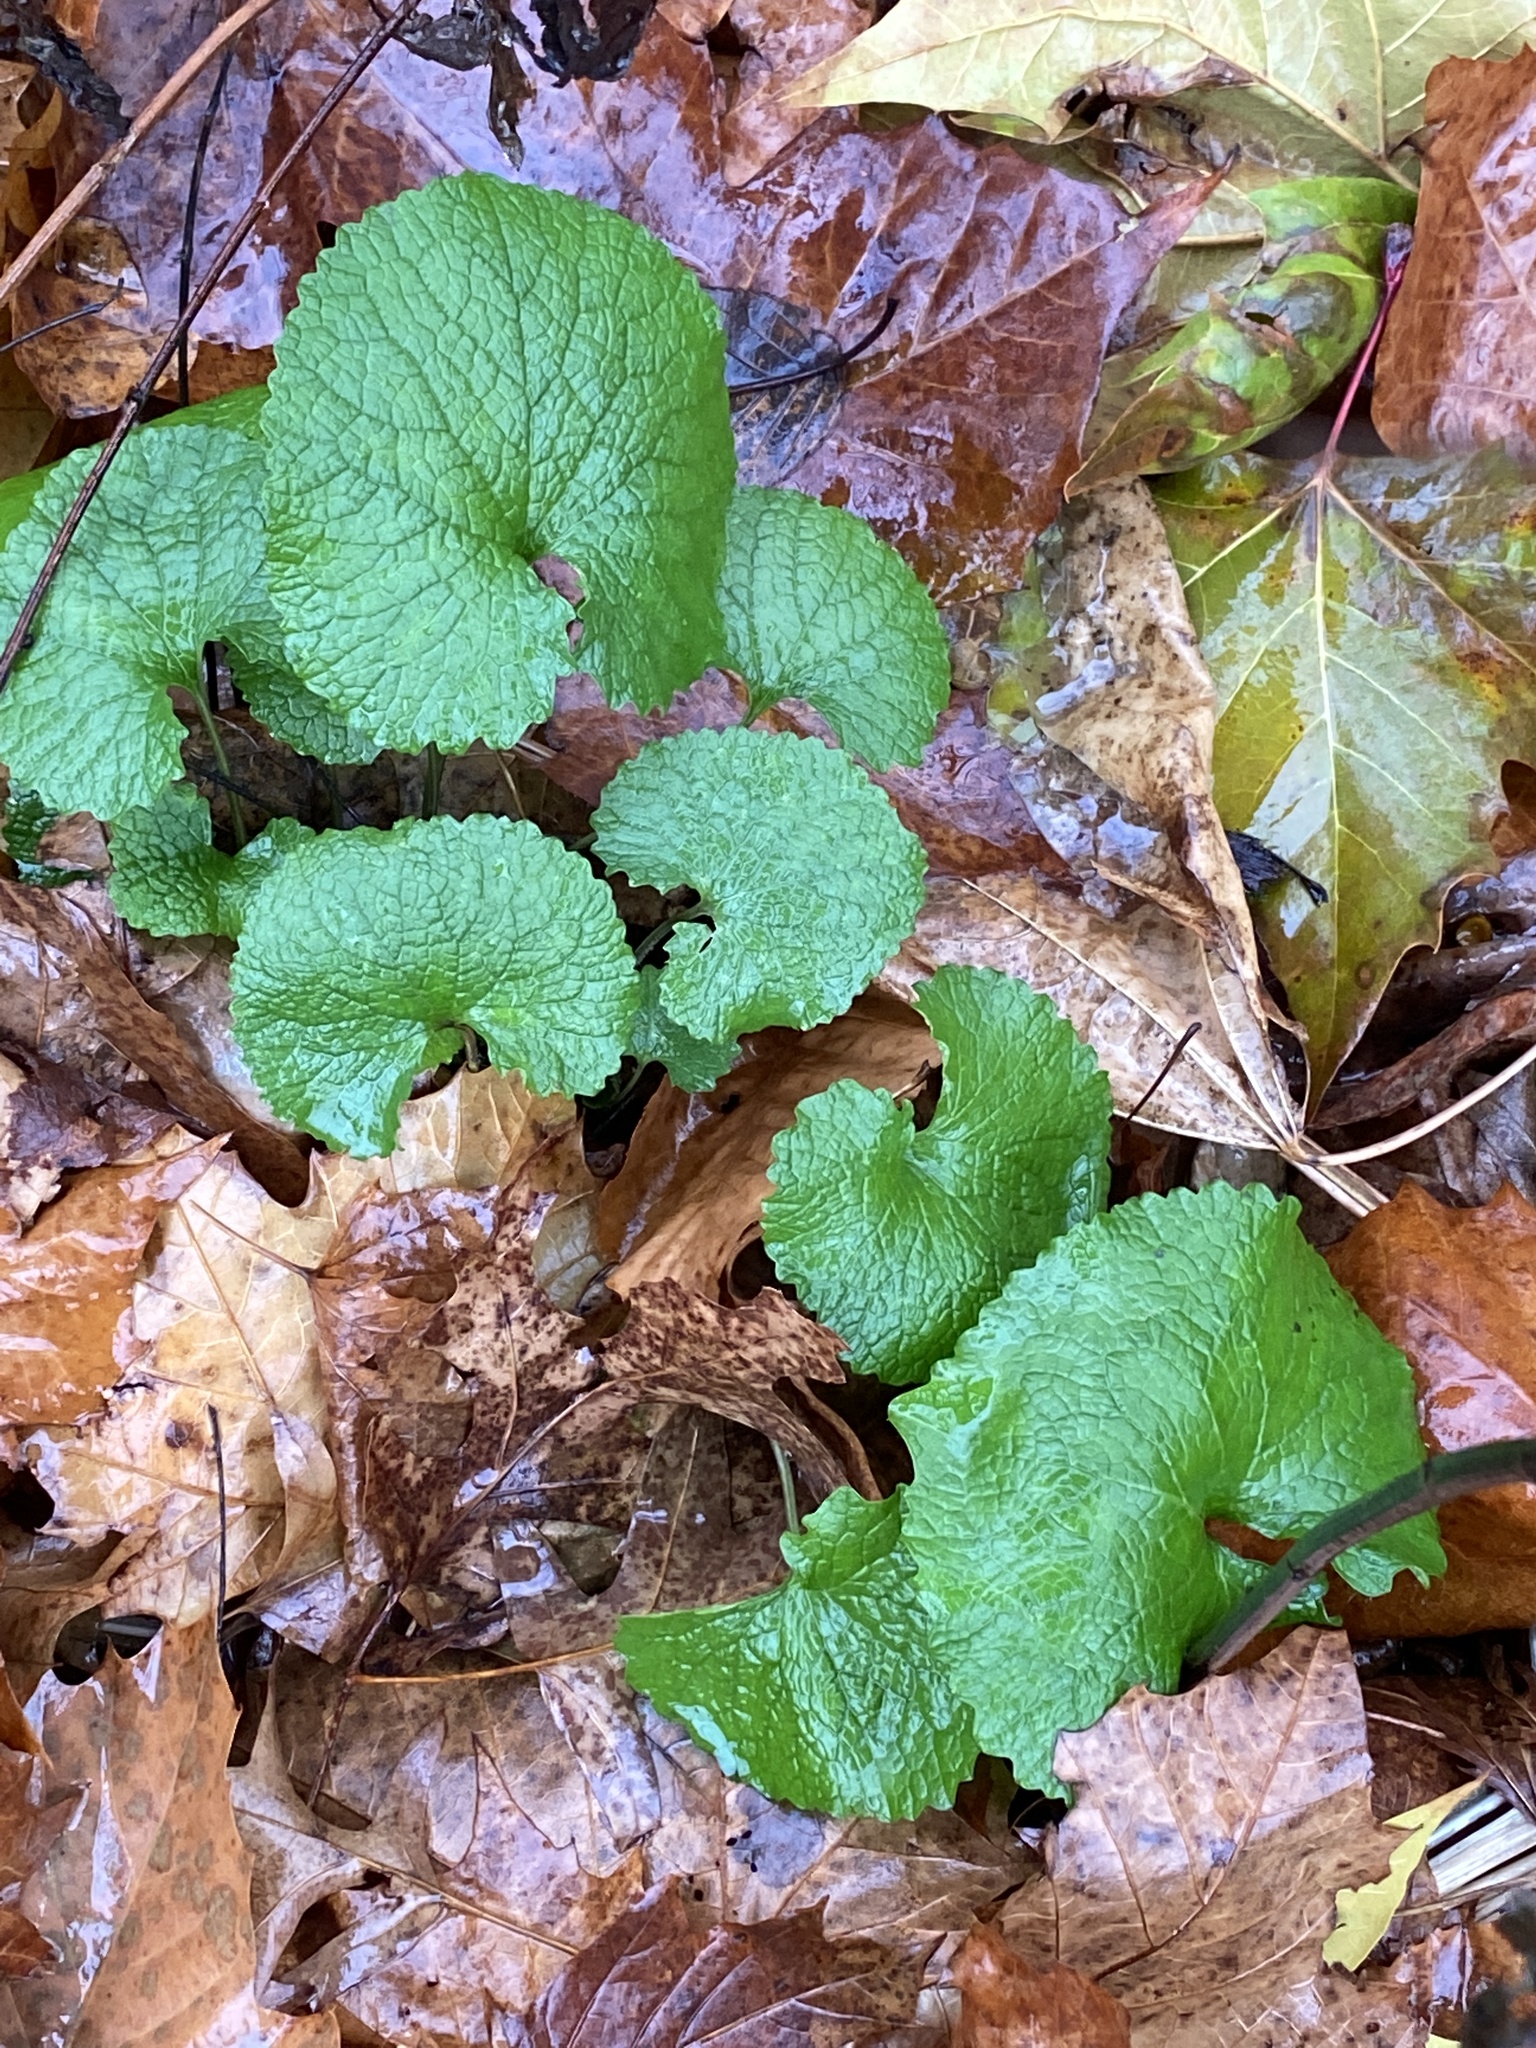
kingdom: Plantae
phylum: Tracheophyta
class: Magnoliopsida
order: Brassicales
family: Brassicaceae
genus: Alliaria
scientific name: Alliaria petiolata
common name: Garlic mustard
